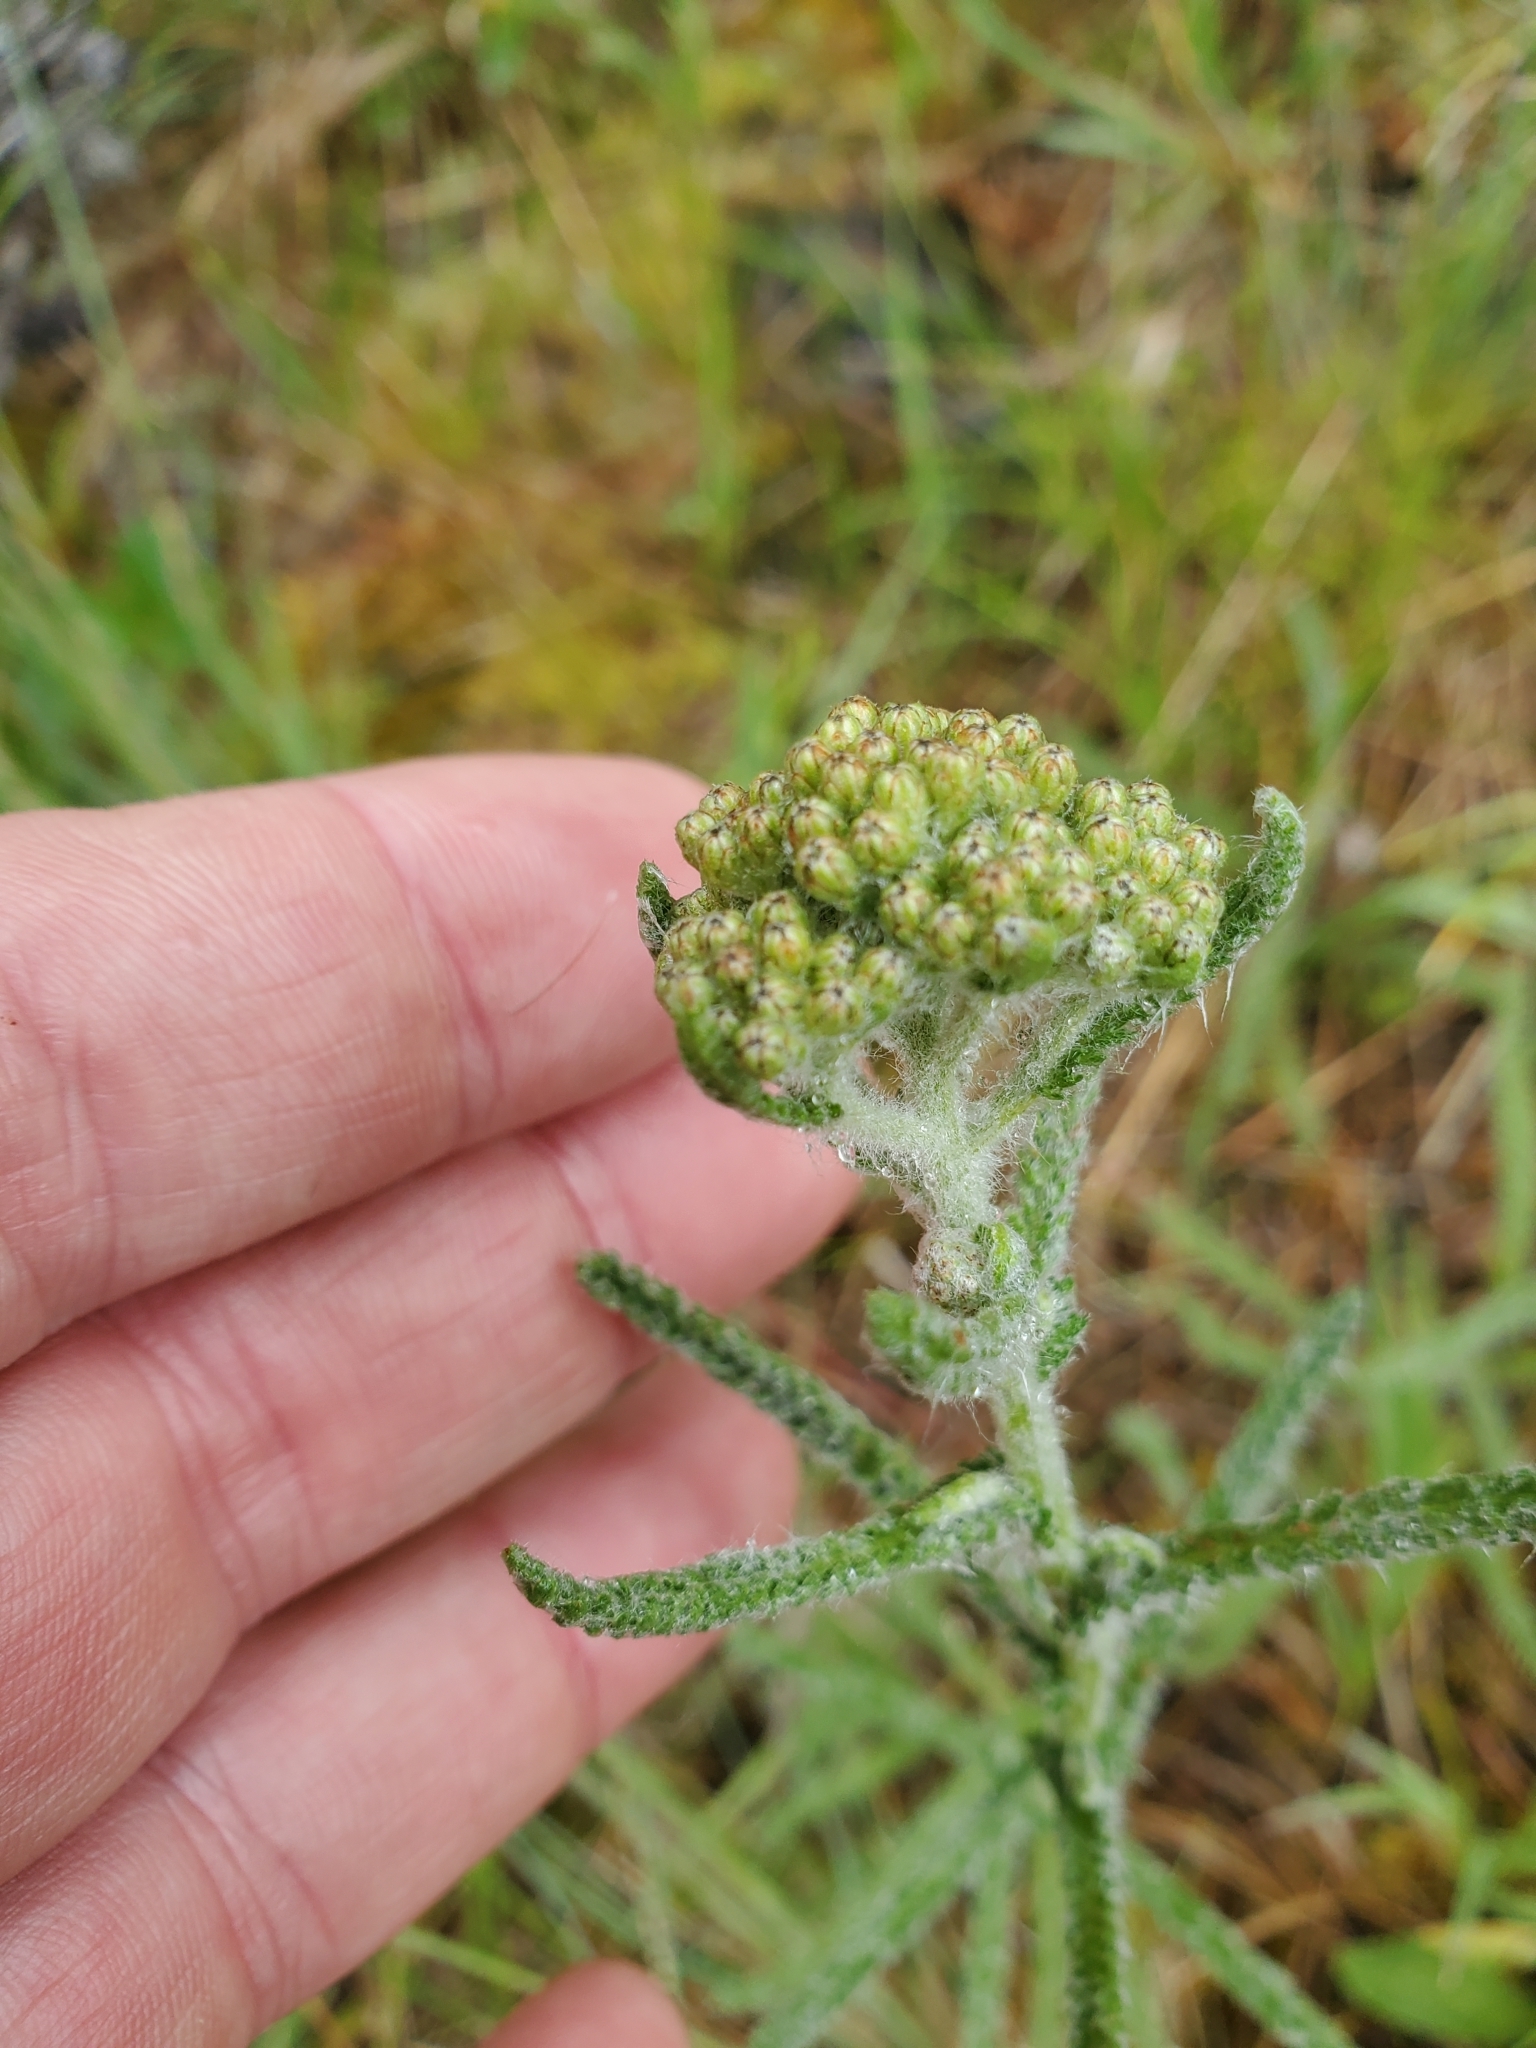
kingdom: Plantae
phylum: Tracheophyta
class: Magnoliopsida
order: Asterales
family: Asteraceae
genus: Achillea
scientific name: Achillea millefolium
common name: Yarrow
